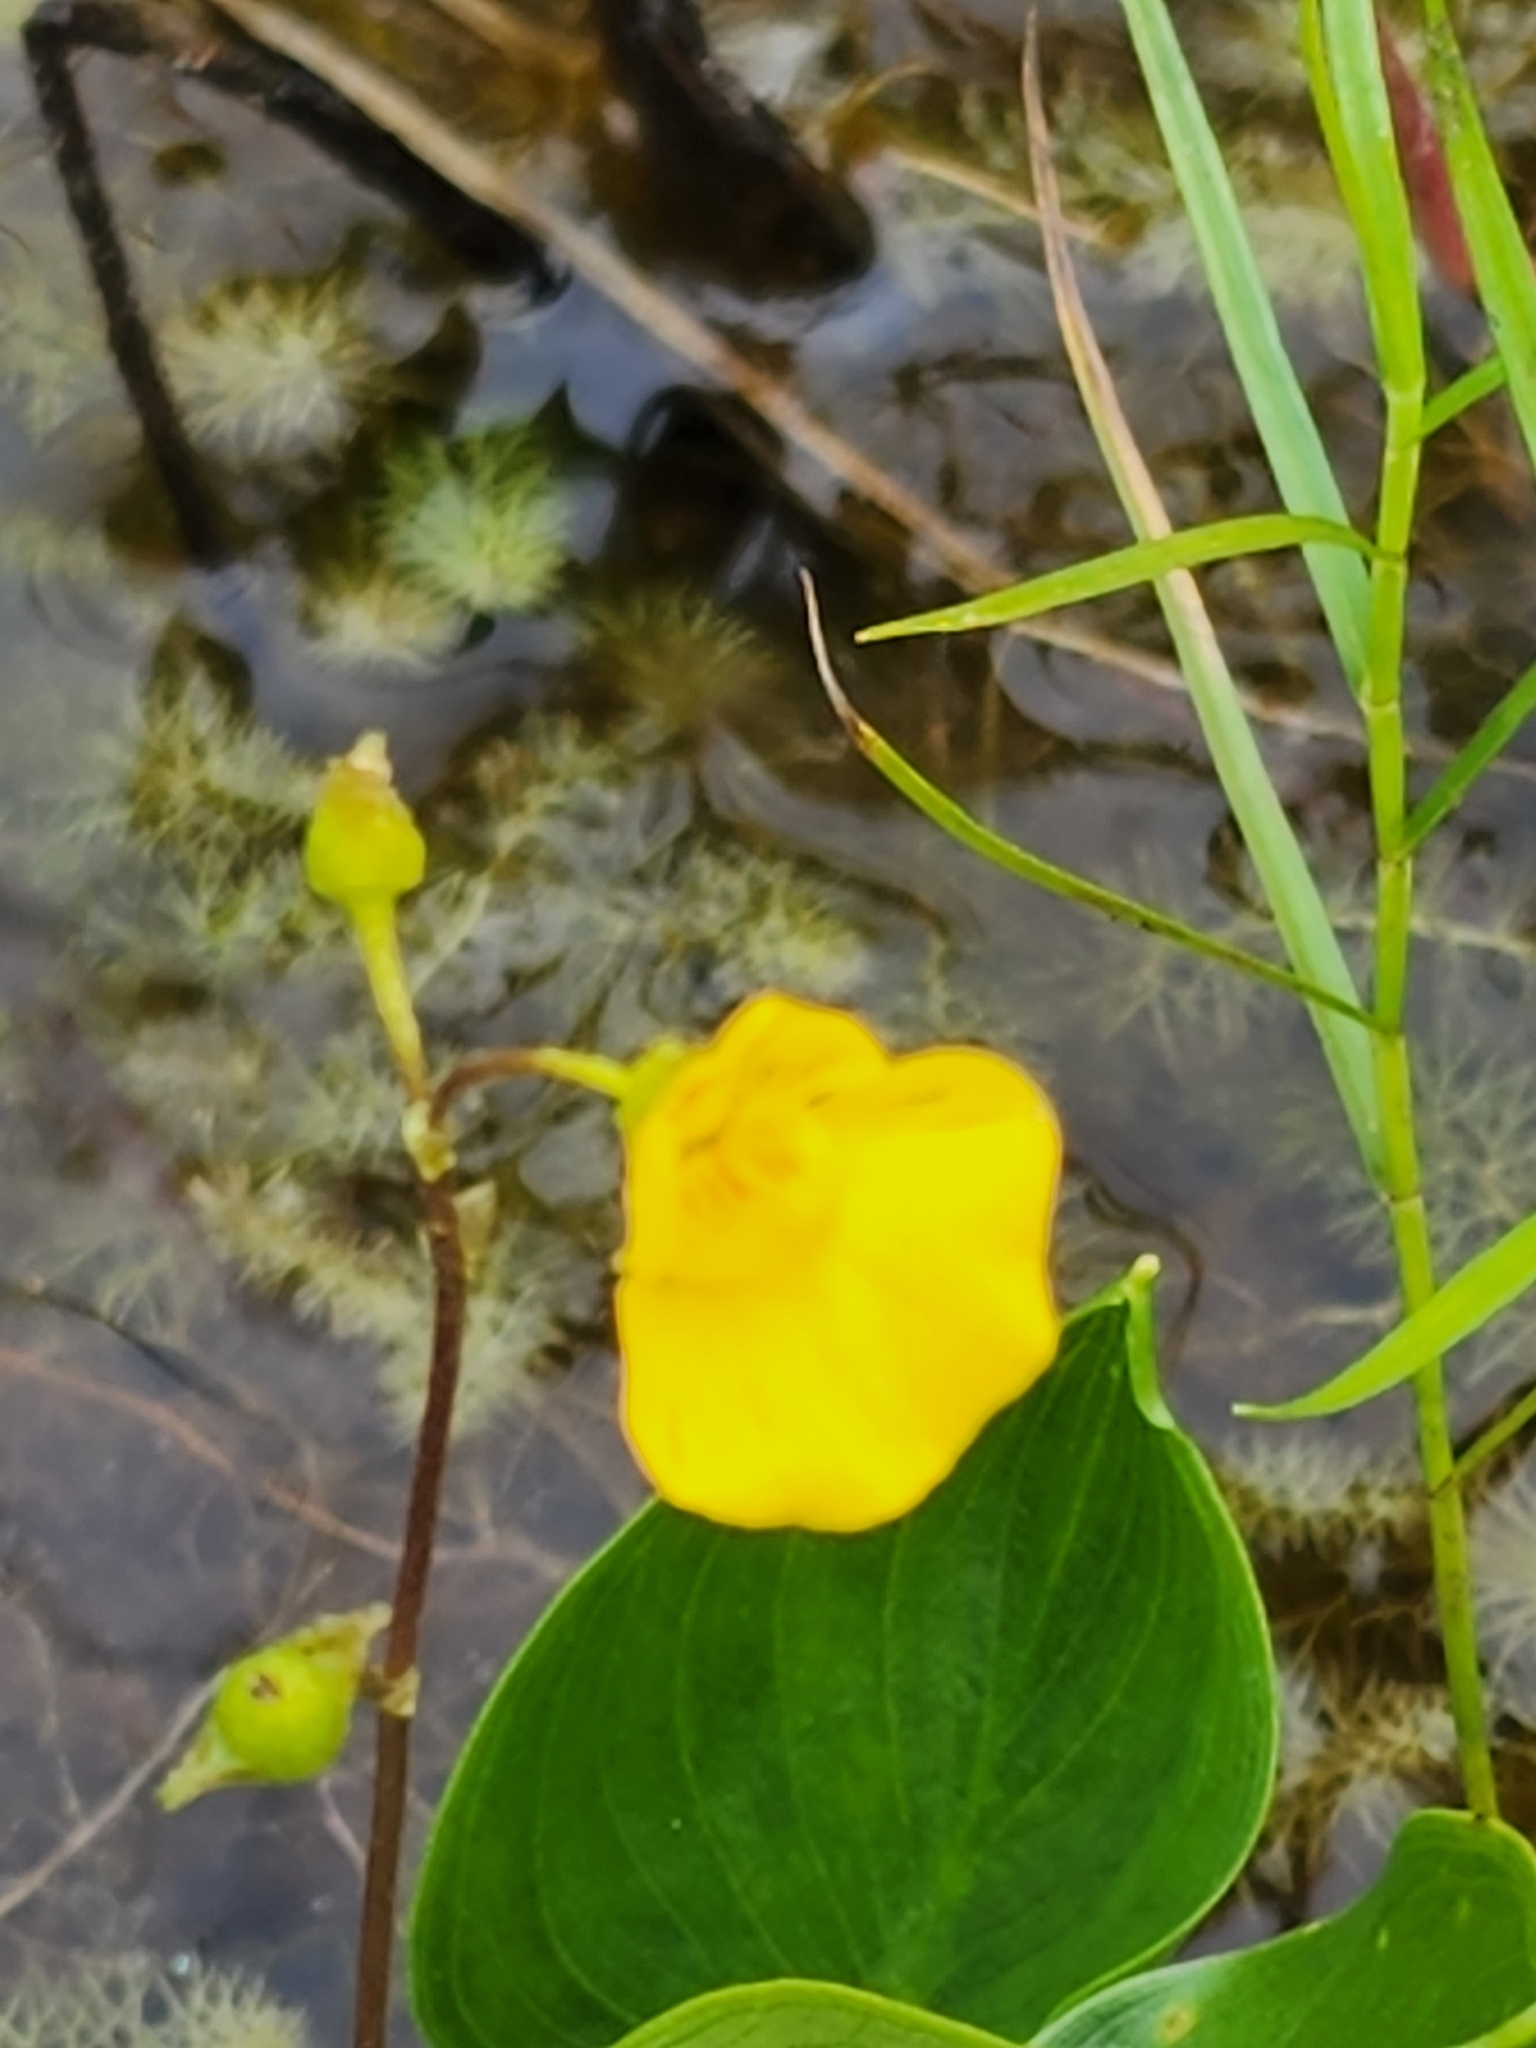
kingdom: Plantae
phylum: Tracheophyta
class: Magnoliopsida
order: Lamiales
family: Lentibulariaceae
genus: Utricularia
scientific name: Utricularia intermedia
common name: Intermediate bladderwort
